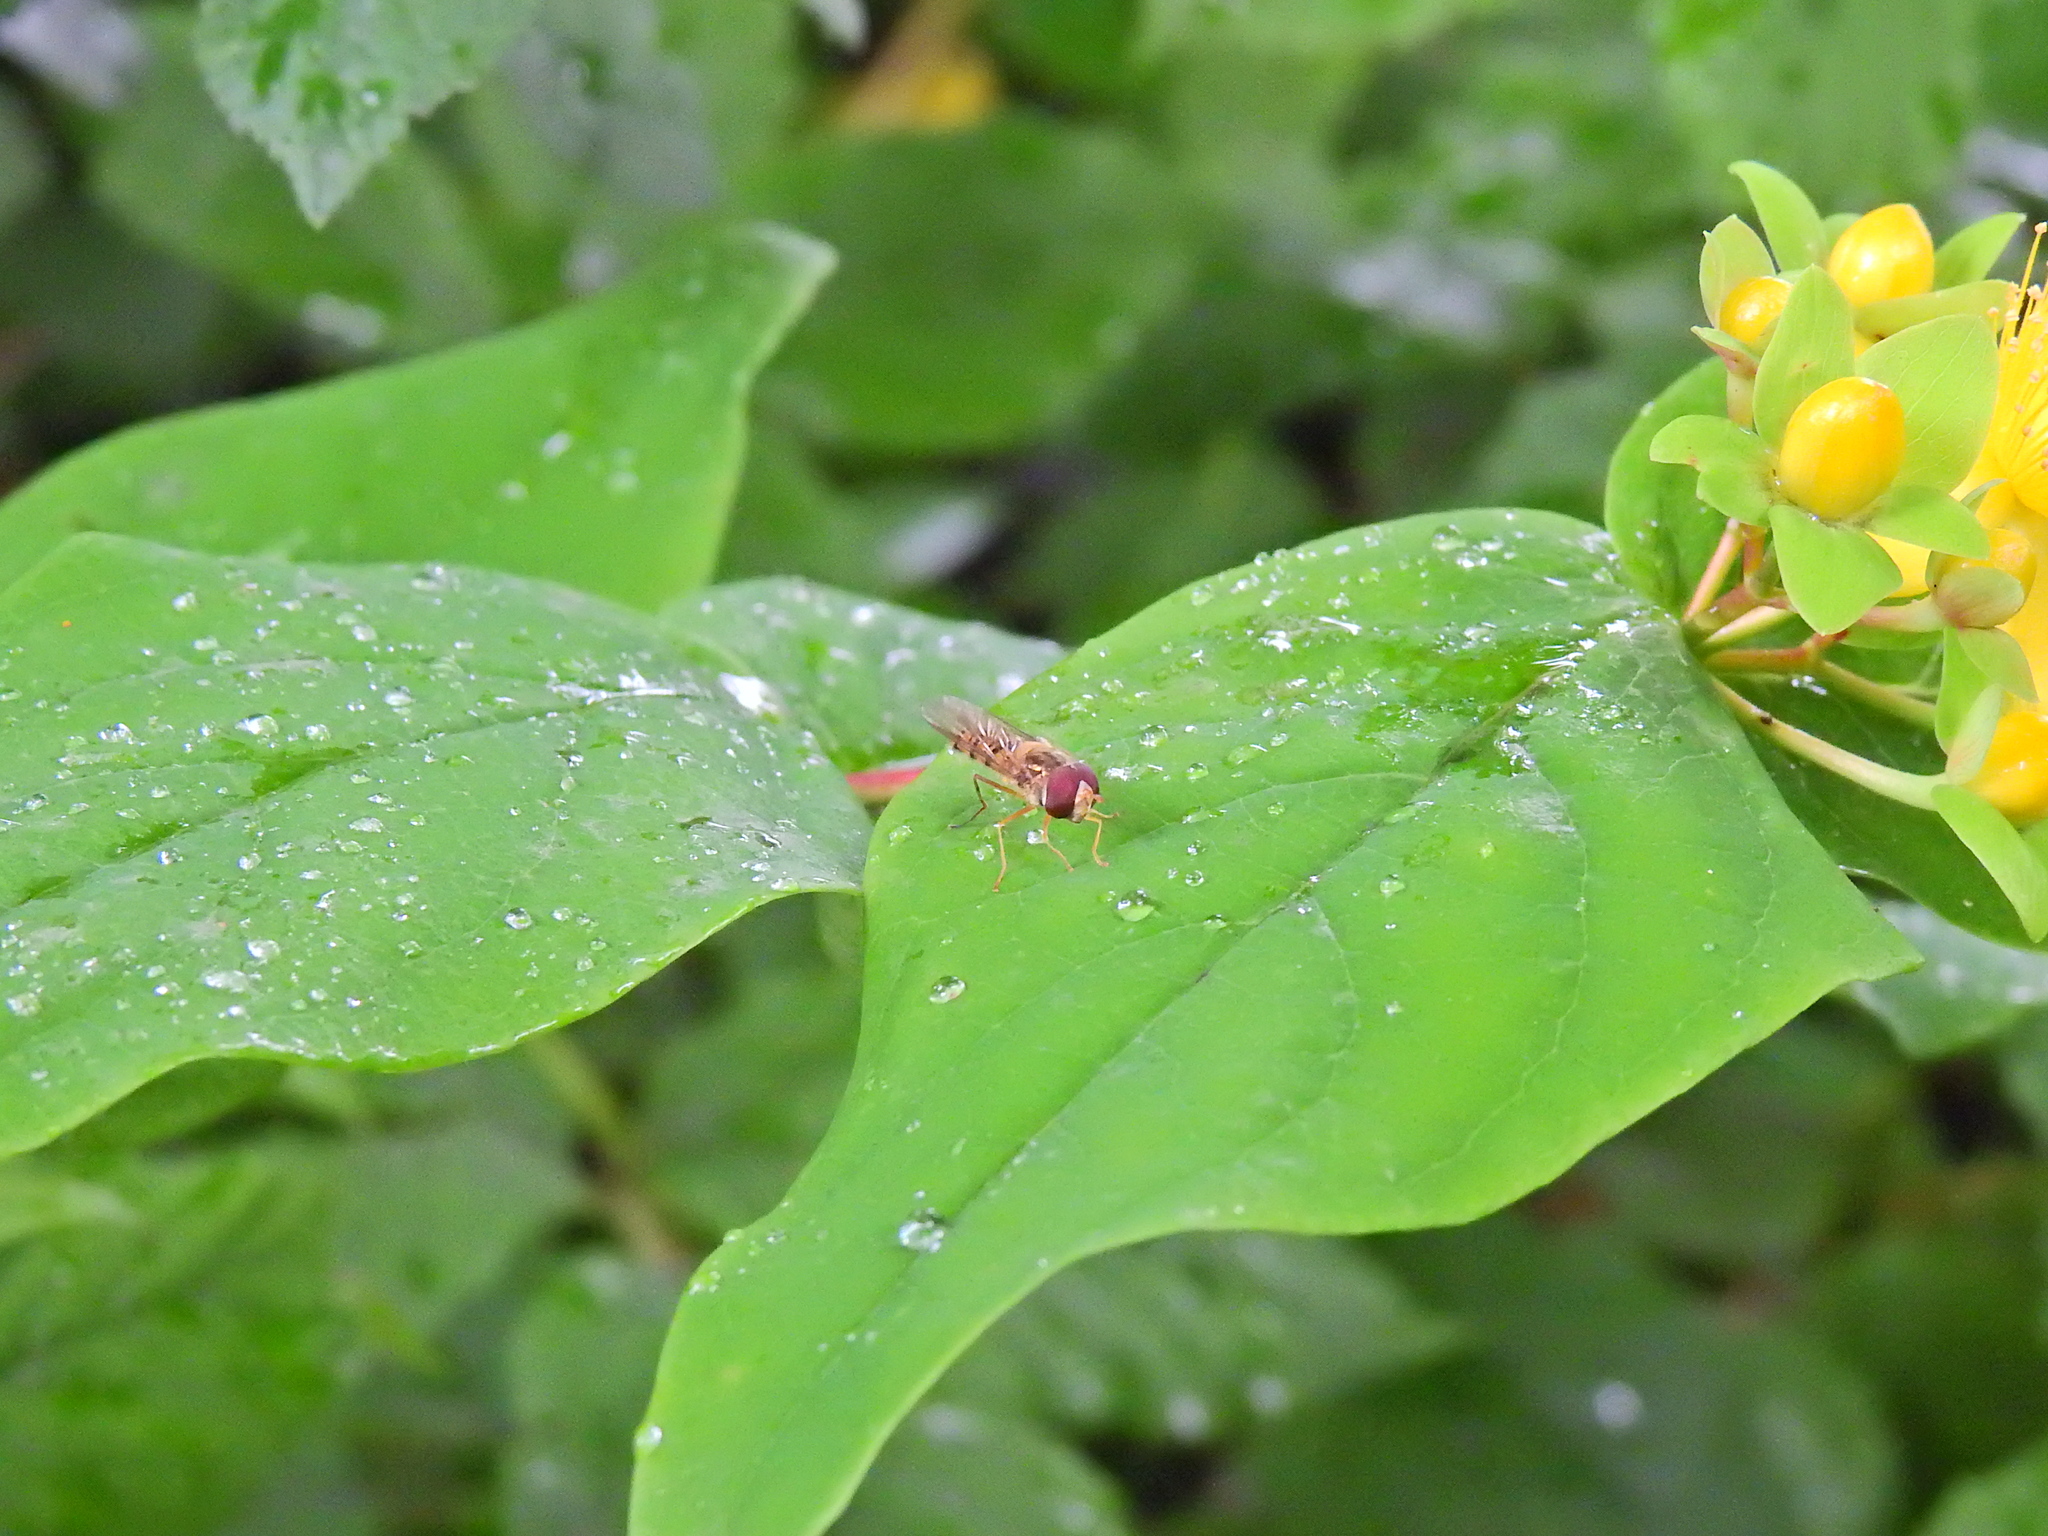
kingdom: Animalia
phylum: Arthropoda
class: Insecta
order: Diptera
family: Syrphidae
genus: Episyrphus
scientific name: Episyrphus balteatus
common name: Marmalade hoverfly
